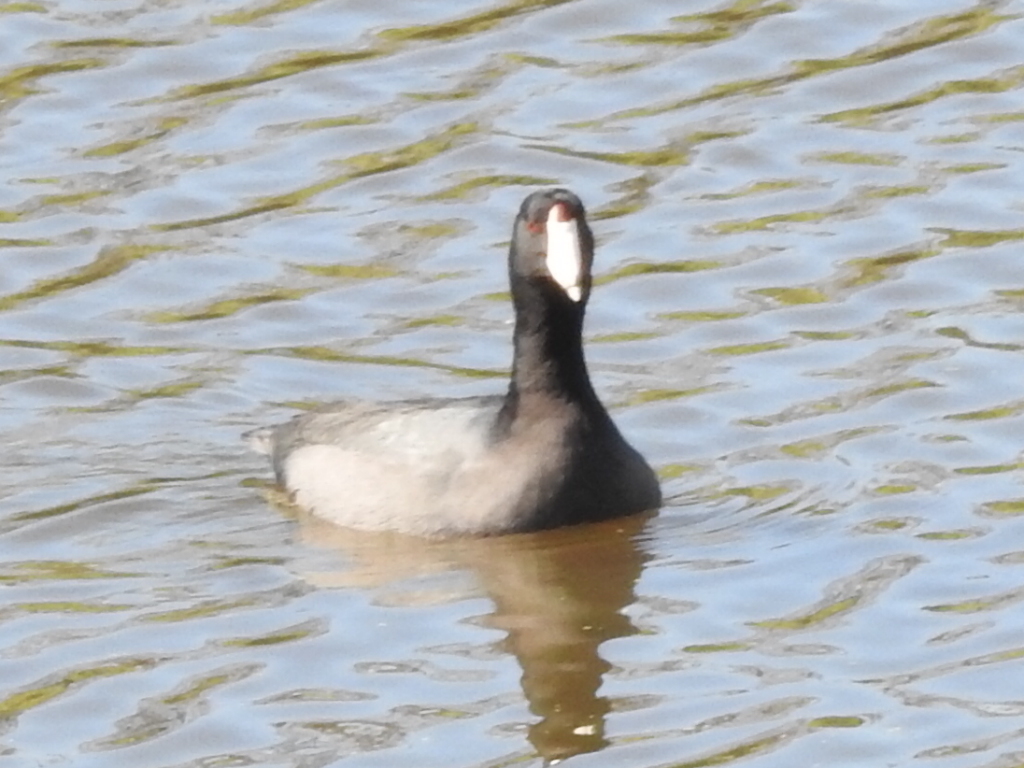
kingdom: Animalia
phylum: Chordata
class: Aves
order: Gruiformes
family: Rallidae
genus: Fulica
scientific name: Fulica americana
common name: American coot
